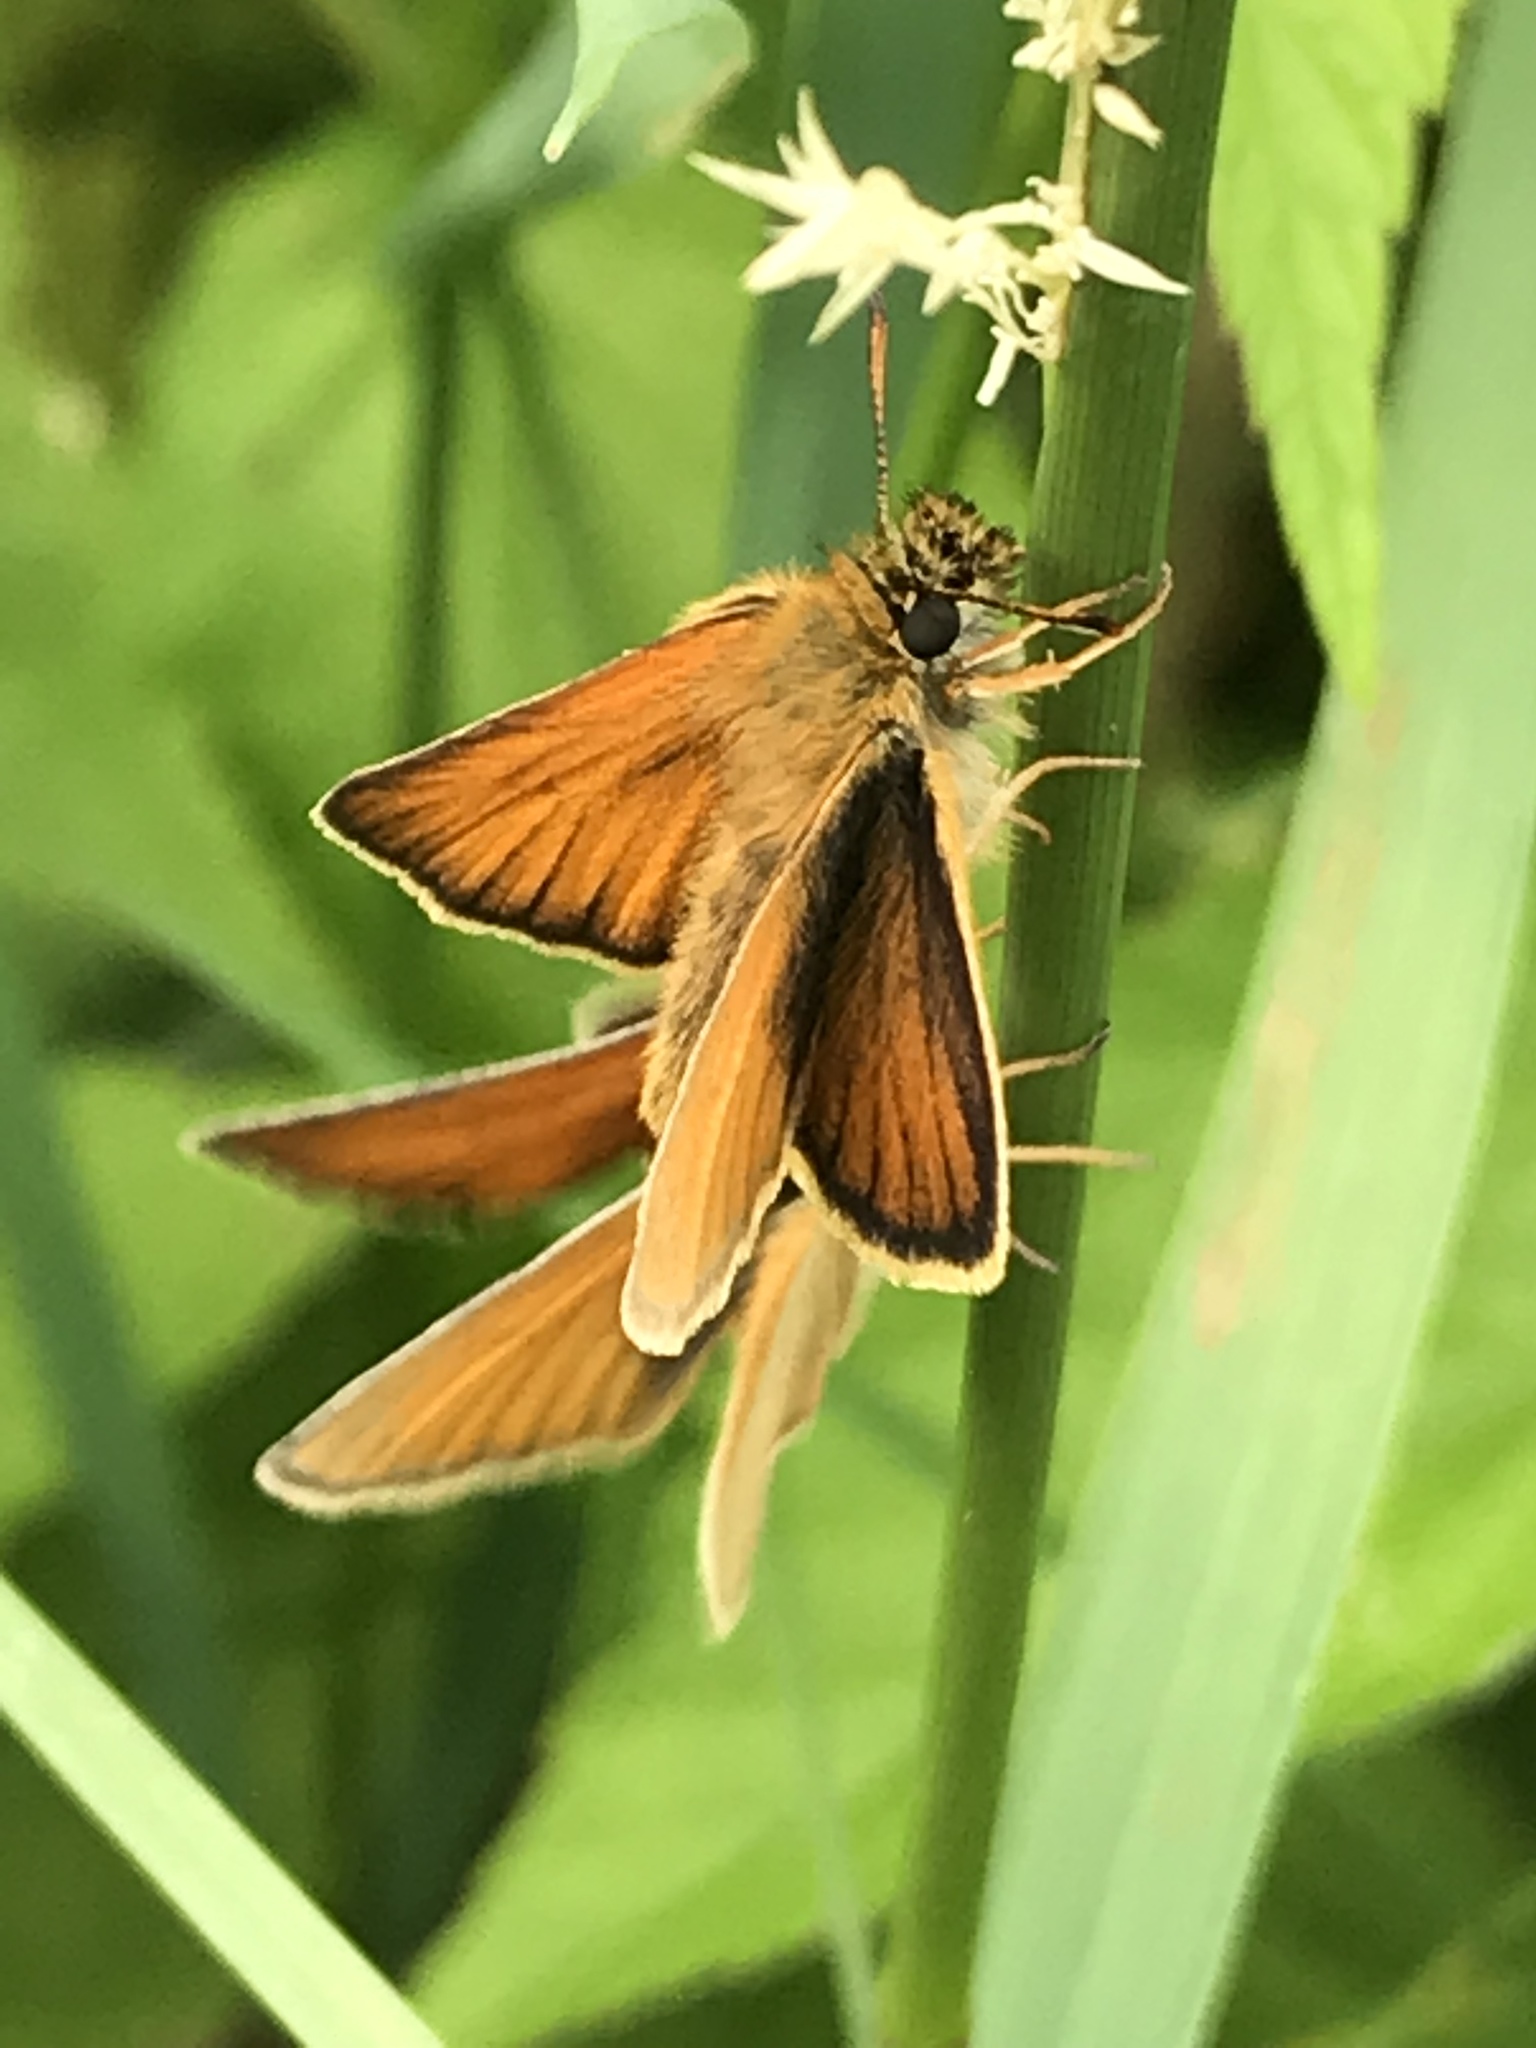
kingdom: Animalia
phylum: Arthropoda
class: Insecta
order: Lepidoptera
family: Hesperiidae
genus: Thymelicus
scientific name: Thymelicus lineola
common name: Essex skipper
